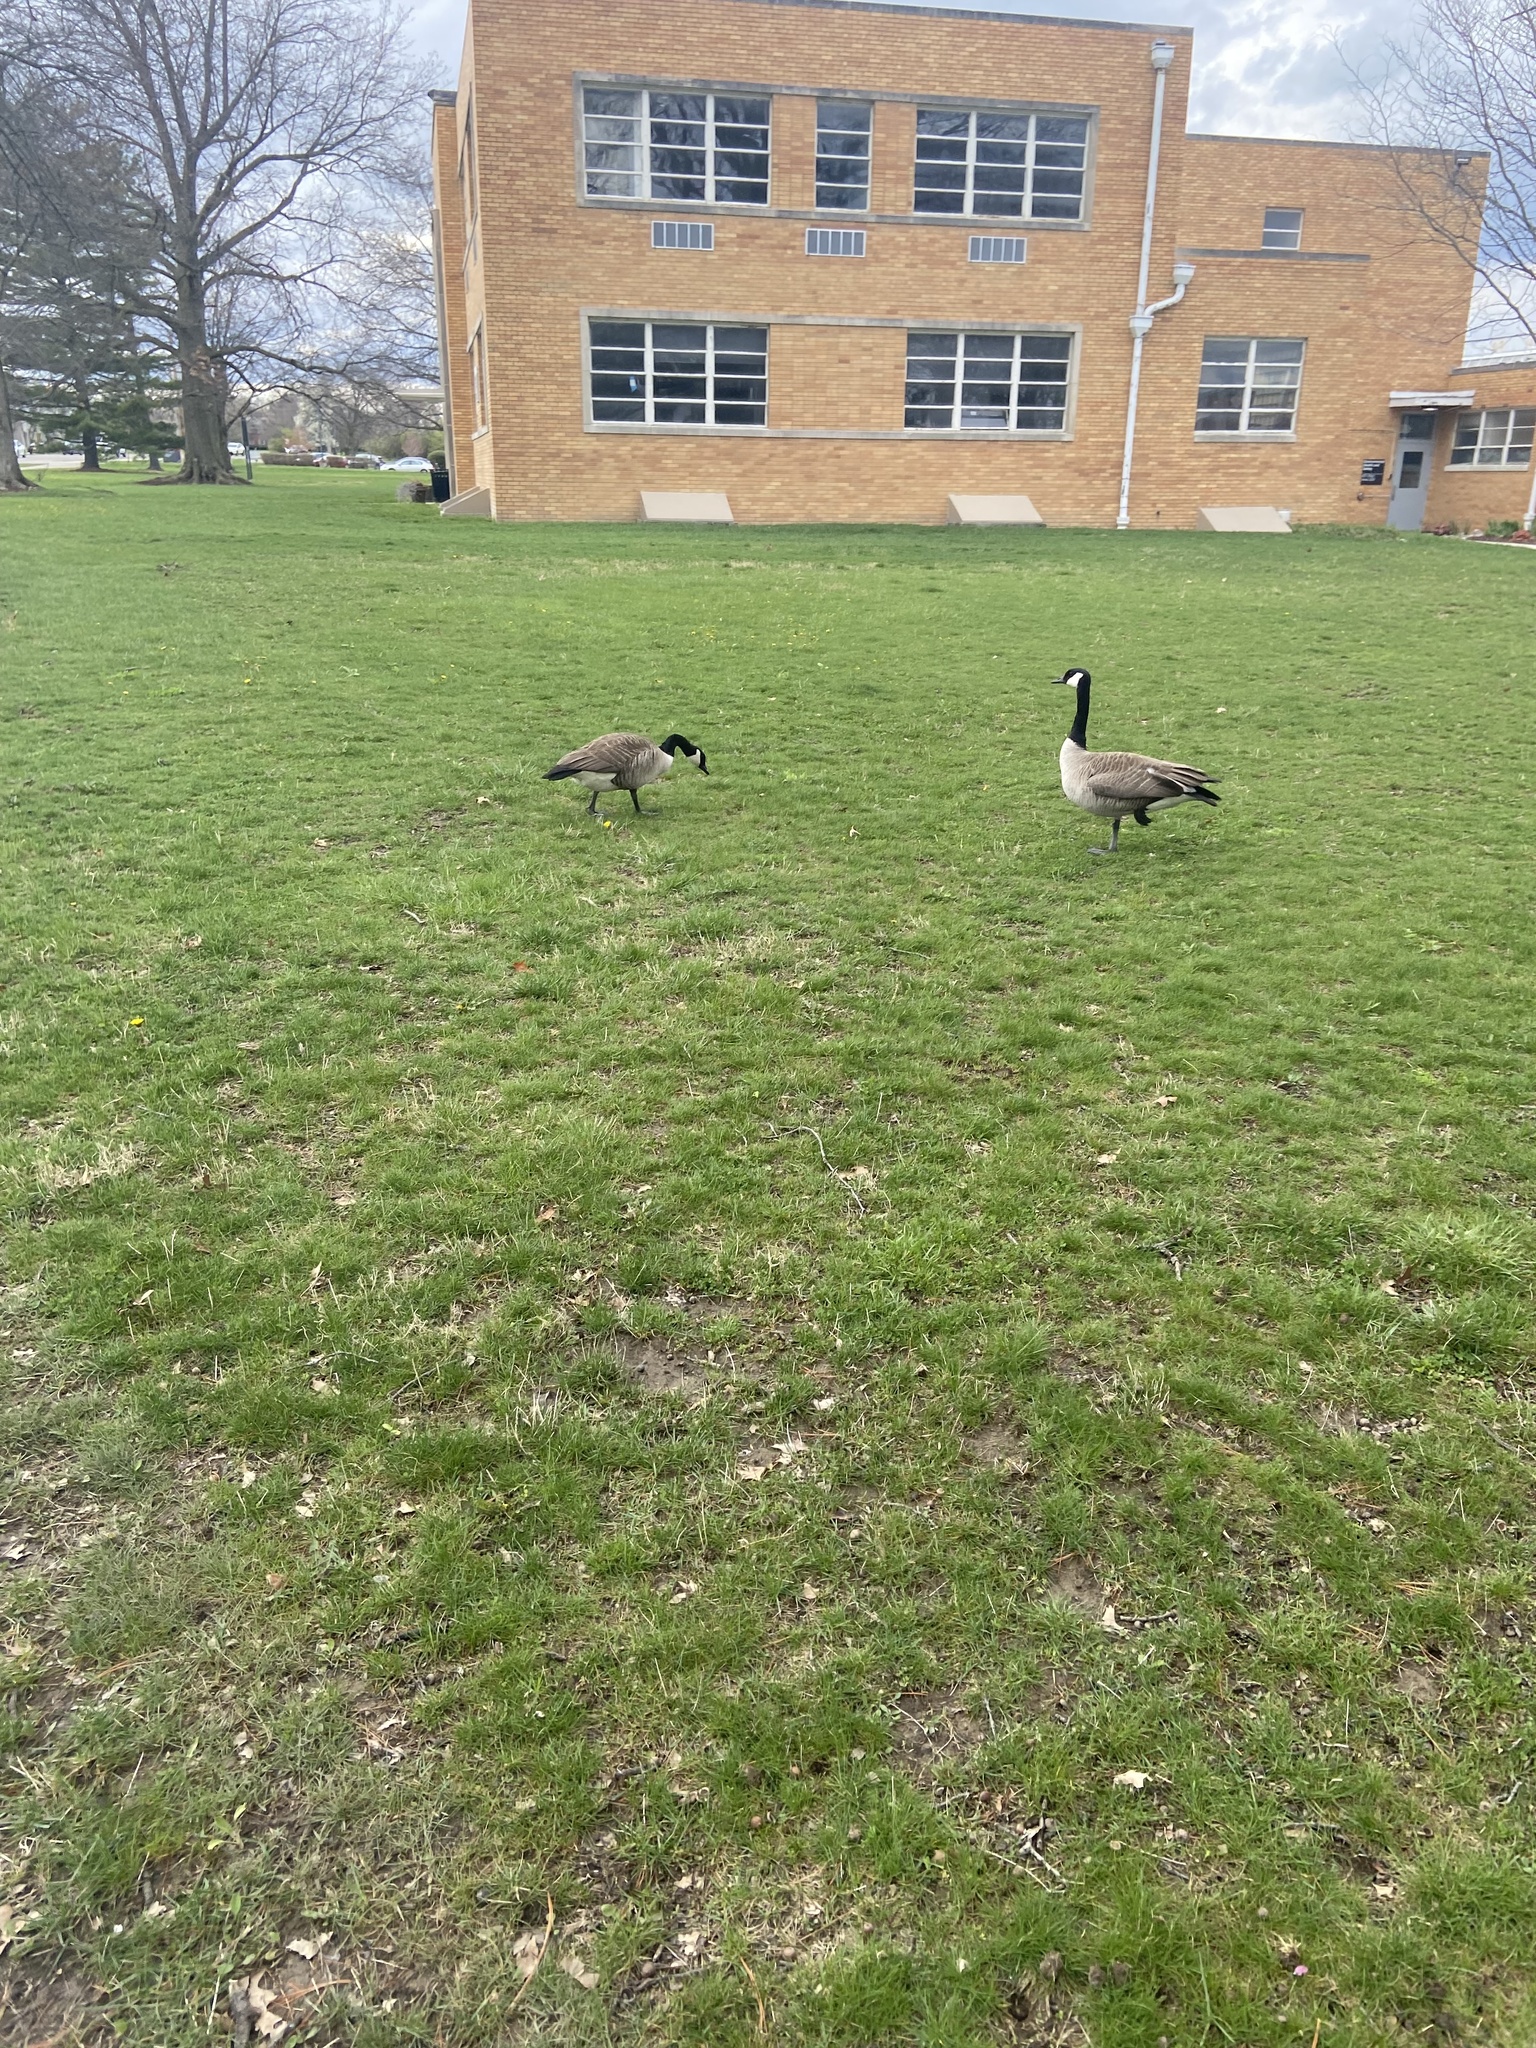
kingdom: Animalia
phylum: Chordata
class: Aves
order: Anseriformes
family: Anatidae
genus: Branta
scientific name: Branta canadensis
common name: Canada goose
